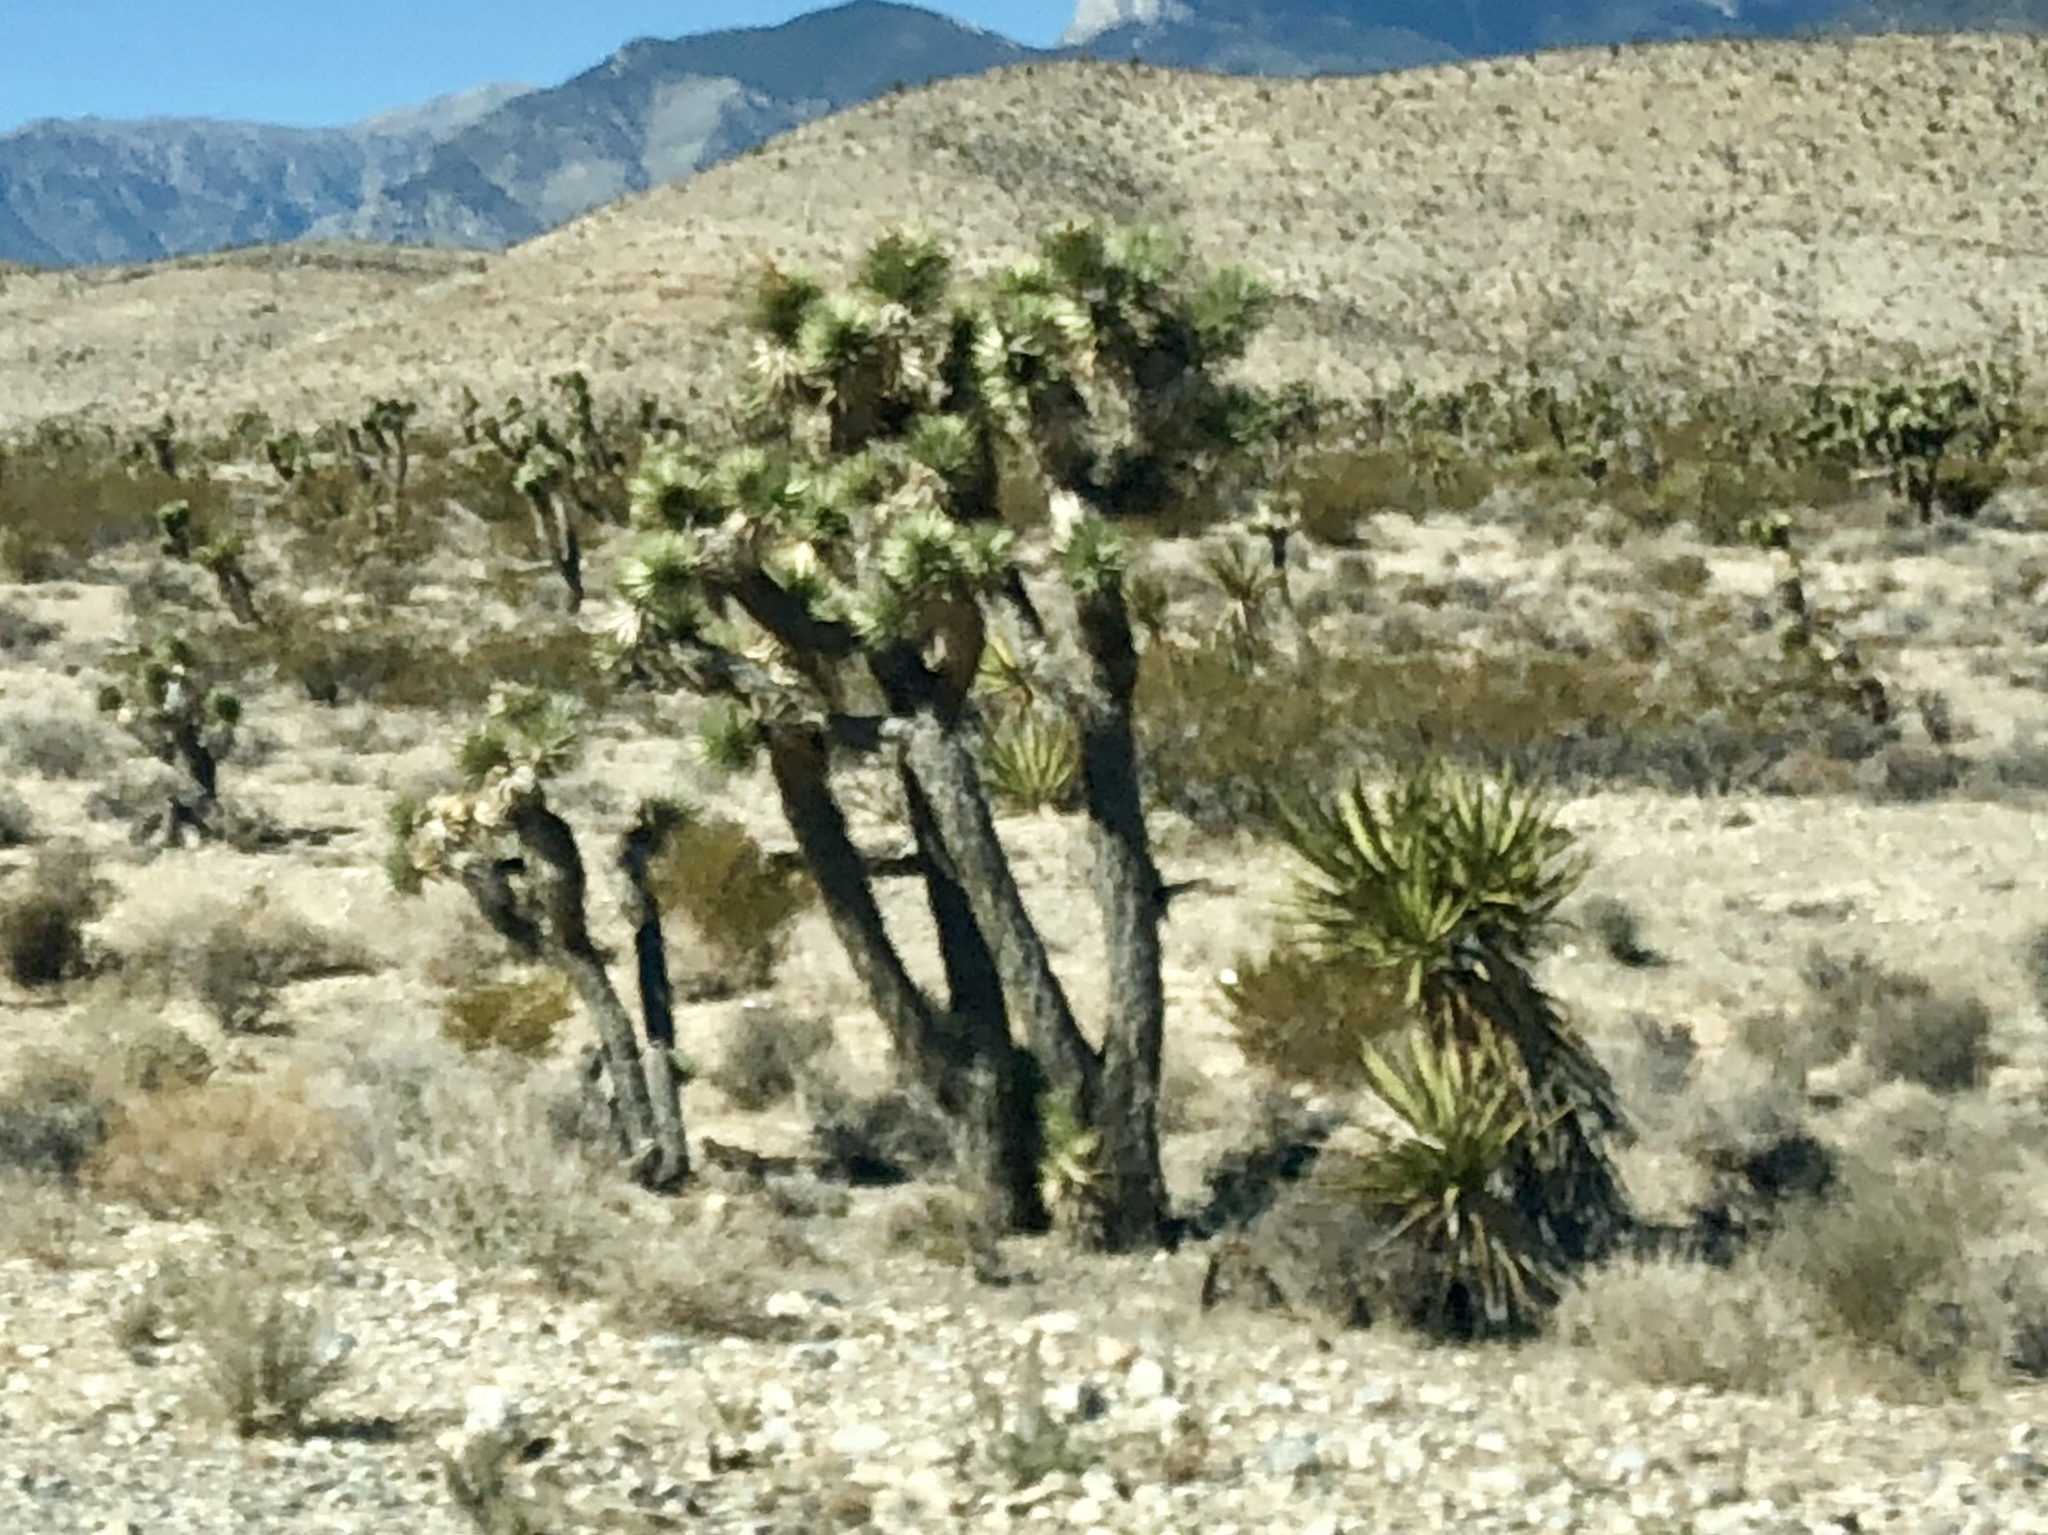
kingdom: Plantae
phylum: Tracheophyta
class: Liliopsida
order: Asparagales
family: Asparagaceae
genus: Yucca
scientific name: Yucca brevifolia
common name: Joshua tree
